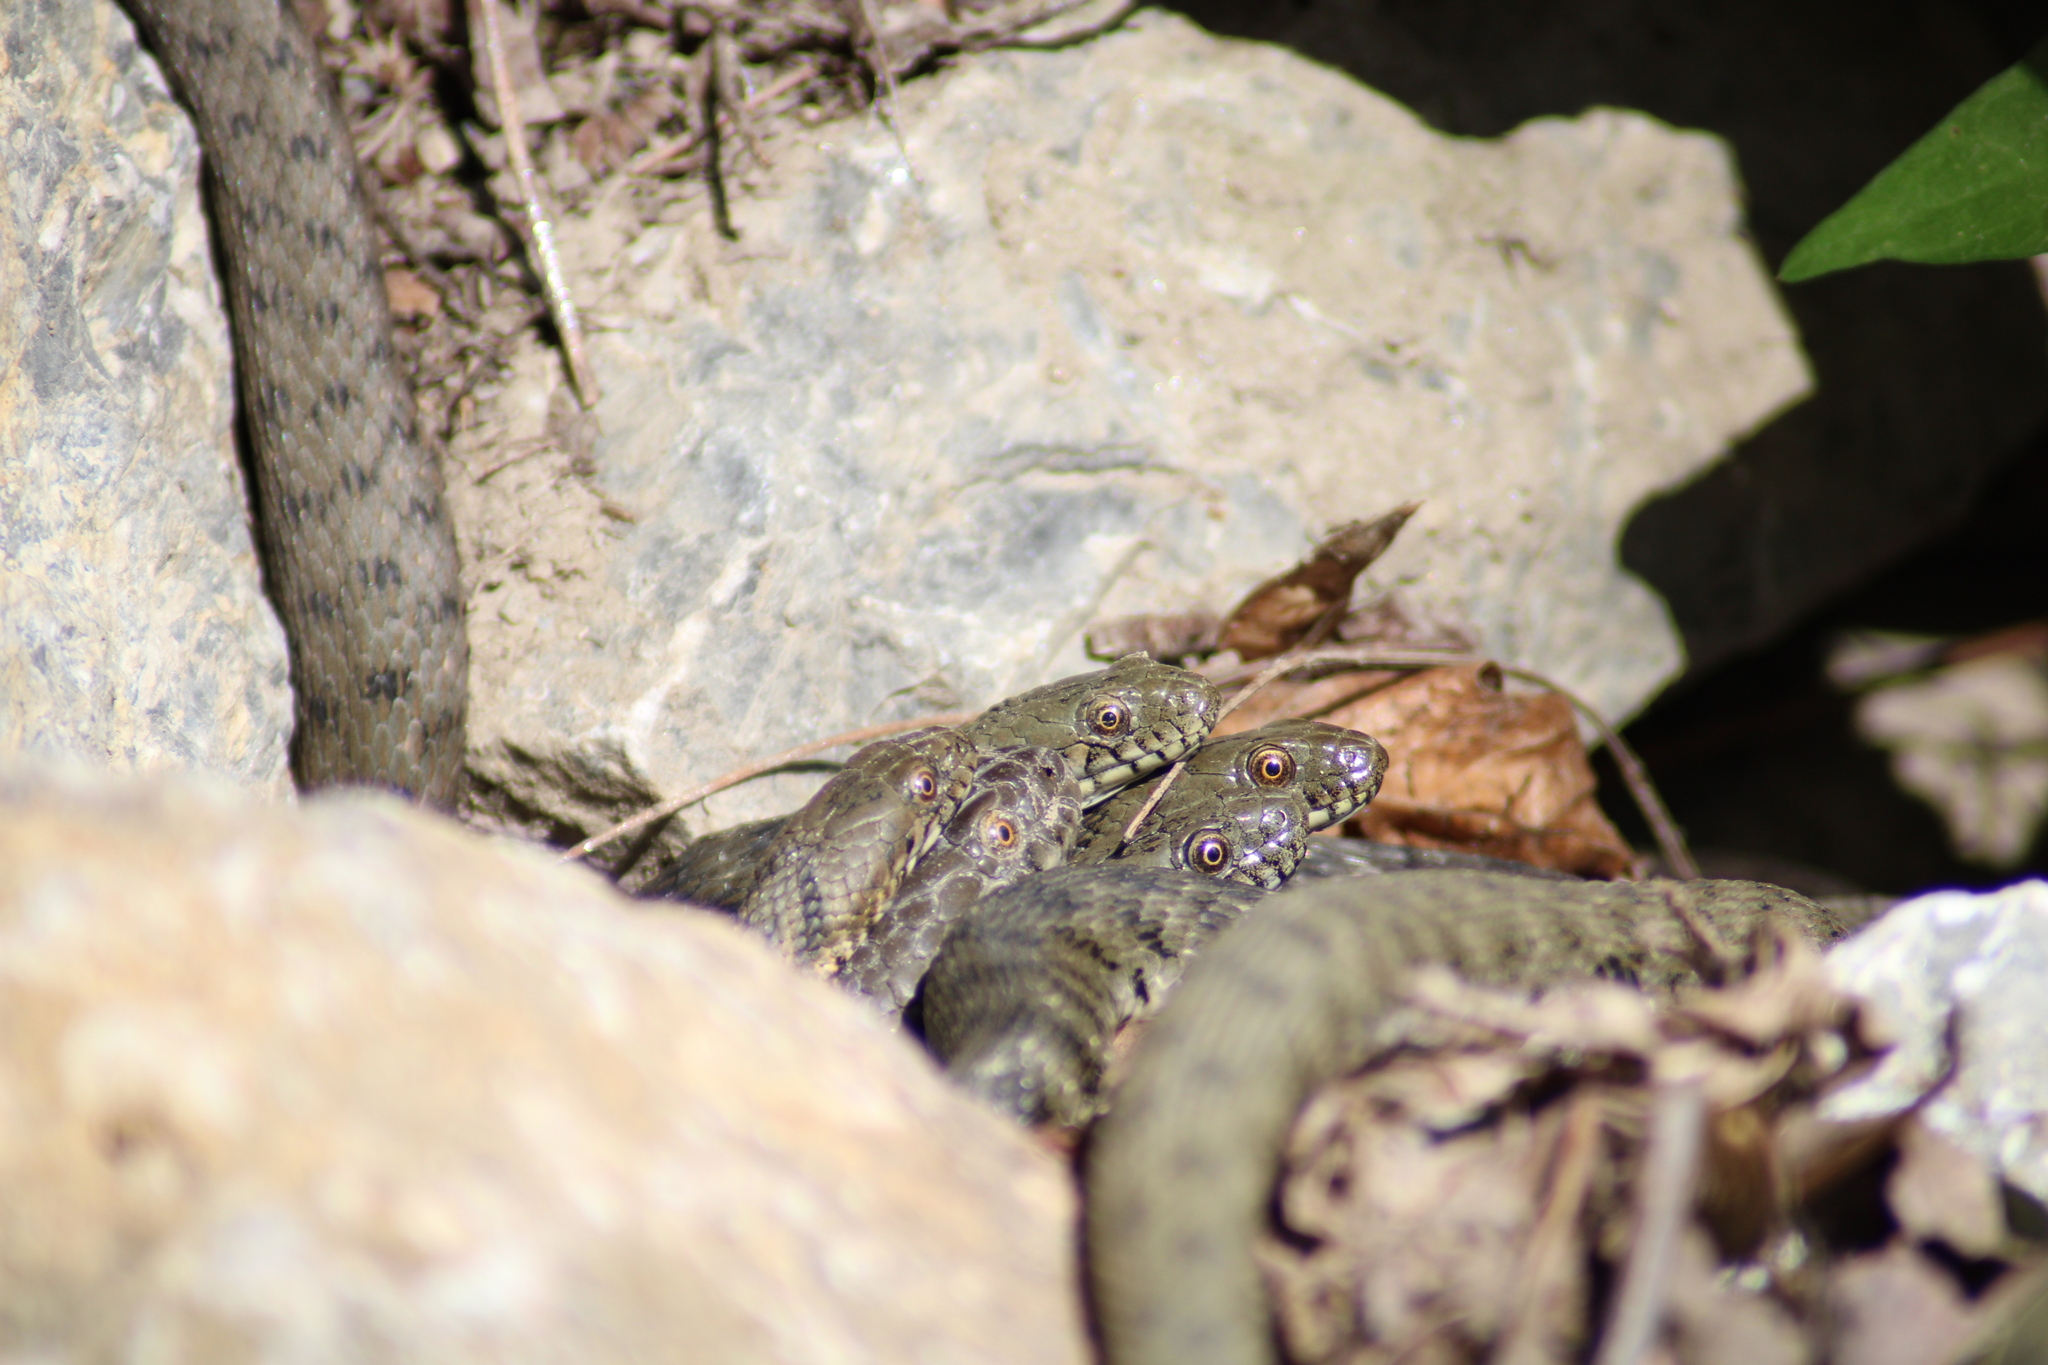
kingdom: Animalia
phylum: Chordata
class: Squamata
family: Colubridae
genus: Natrix
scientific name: Natrix tessellata
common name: Dice snake
